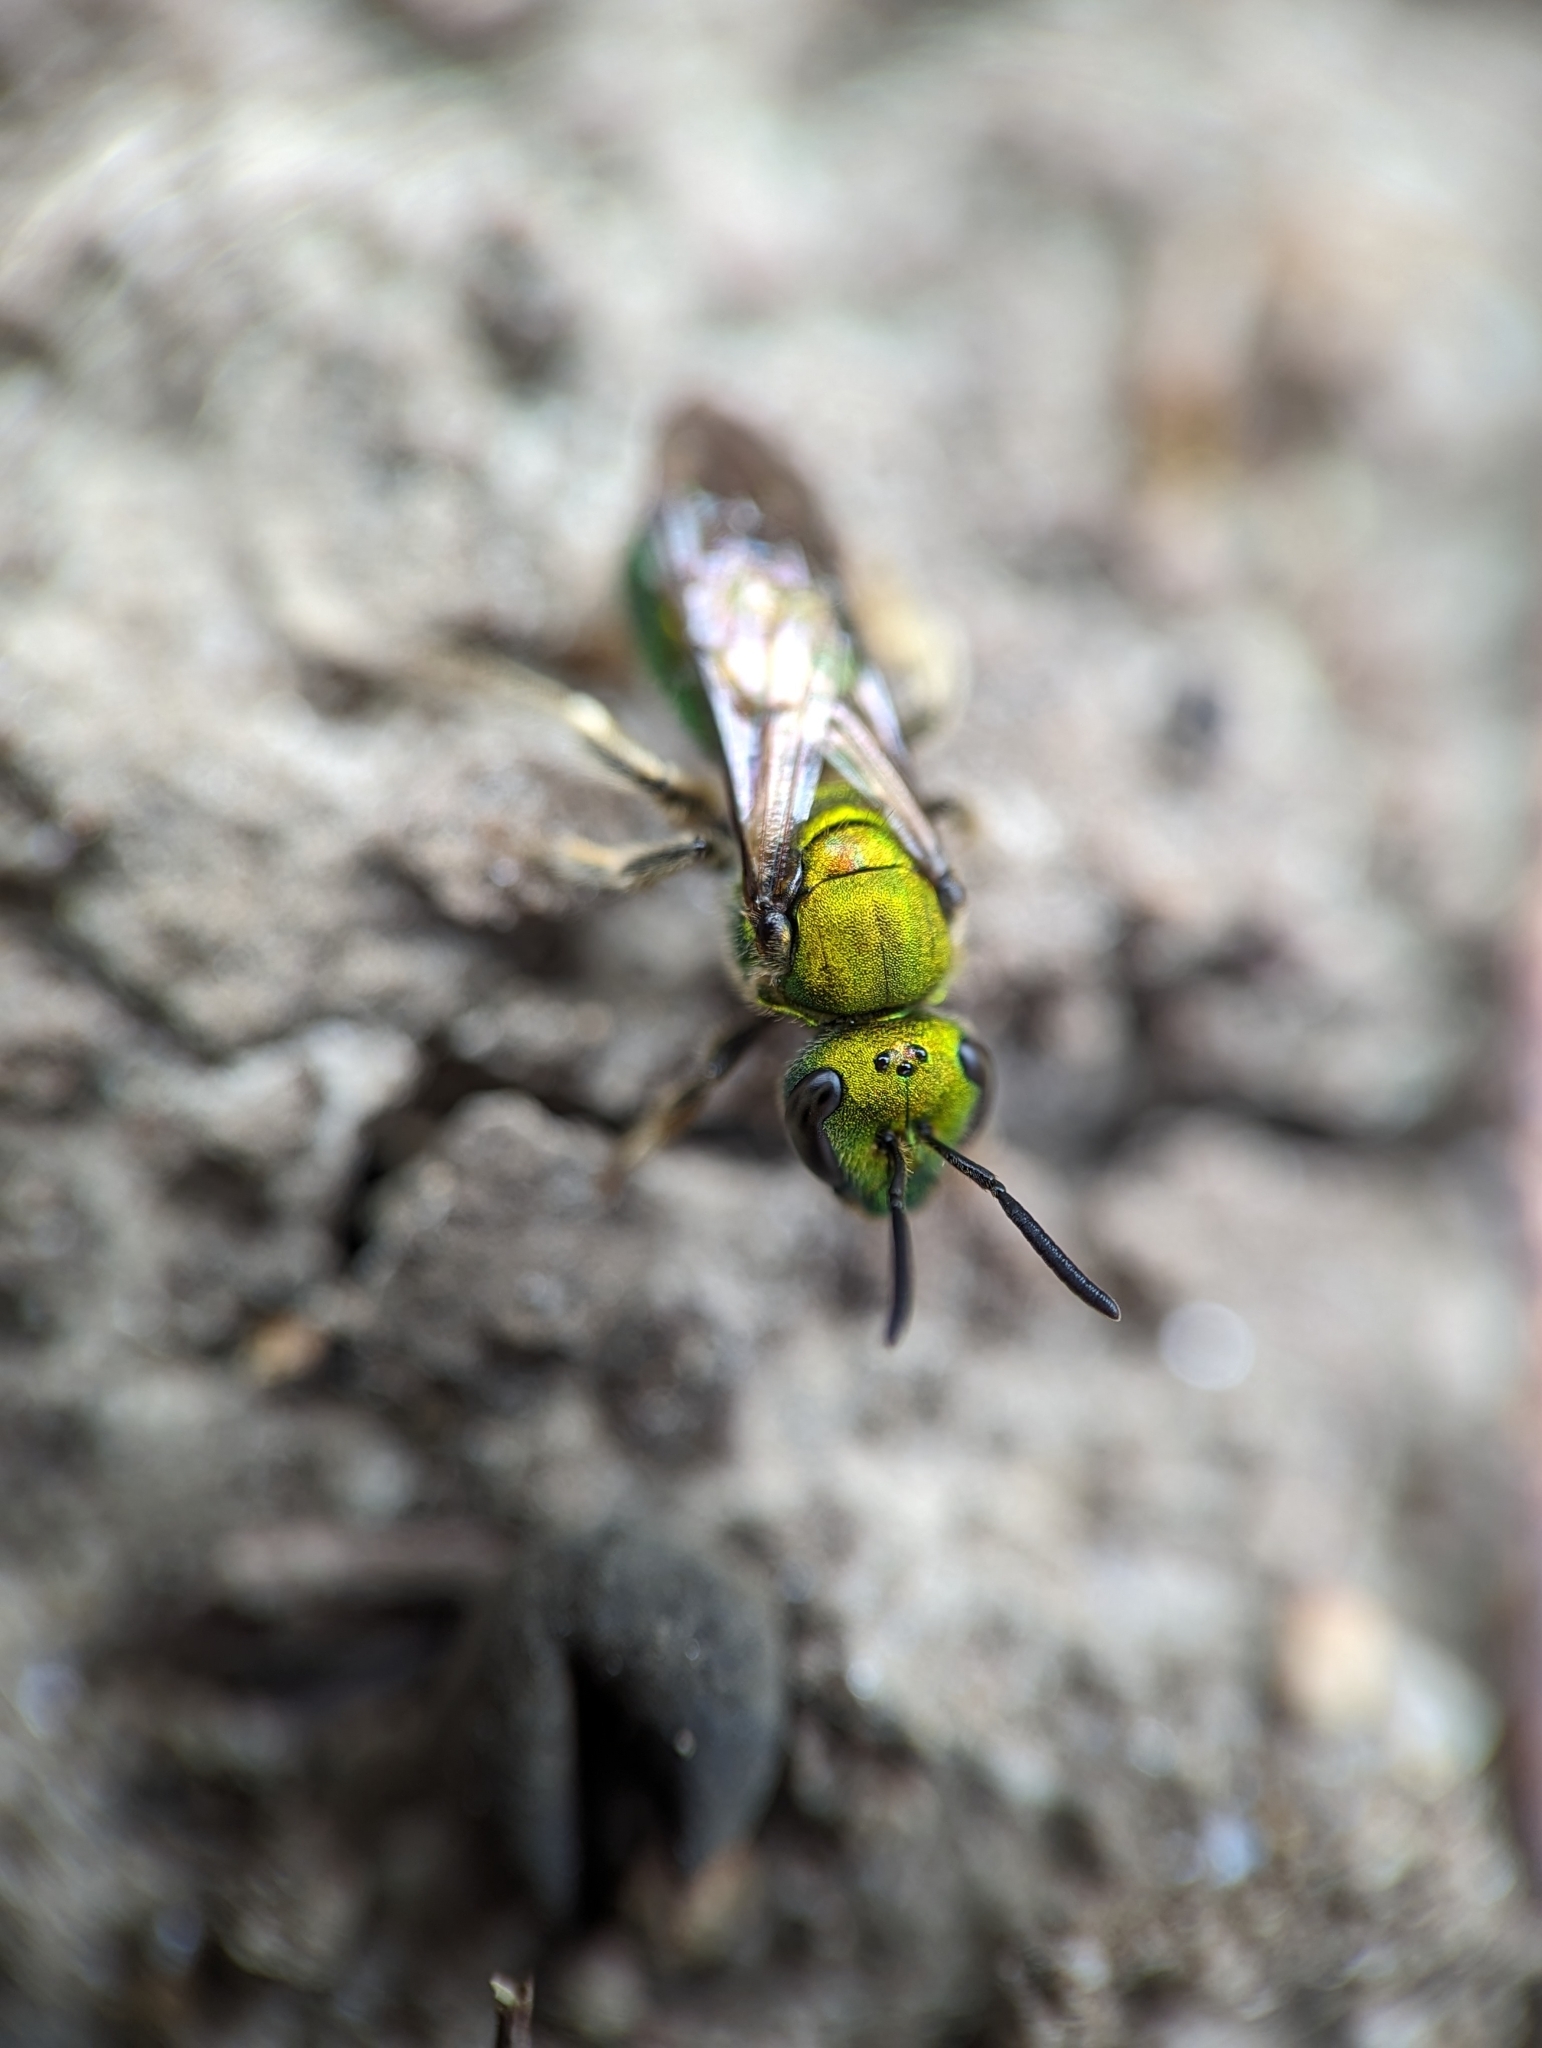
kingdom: Animalia
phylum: Arthropoda
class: Insecta
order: Hymenoptera
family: Halictidae
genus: Augochlora
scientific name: Augochlora pura
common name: Pure green sweat bee
